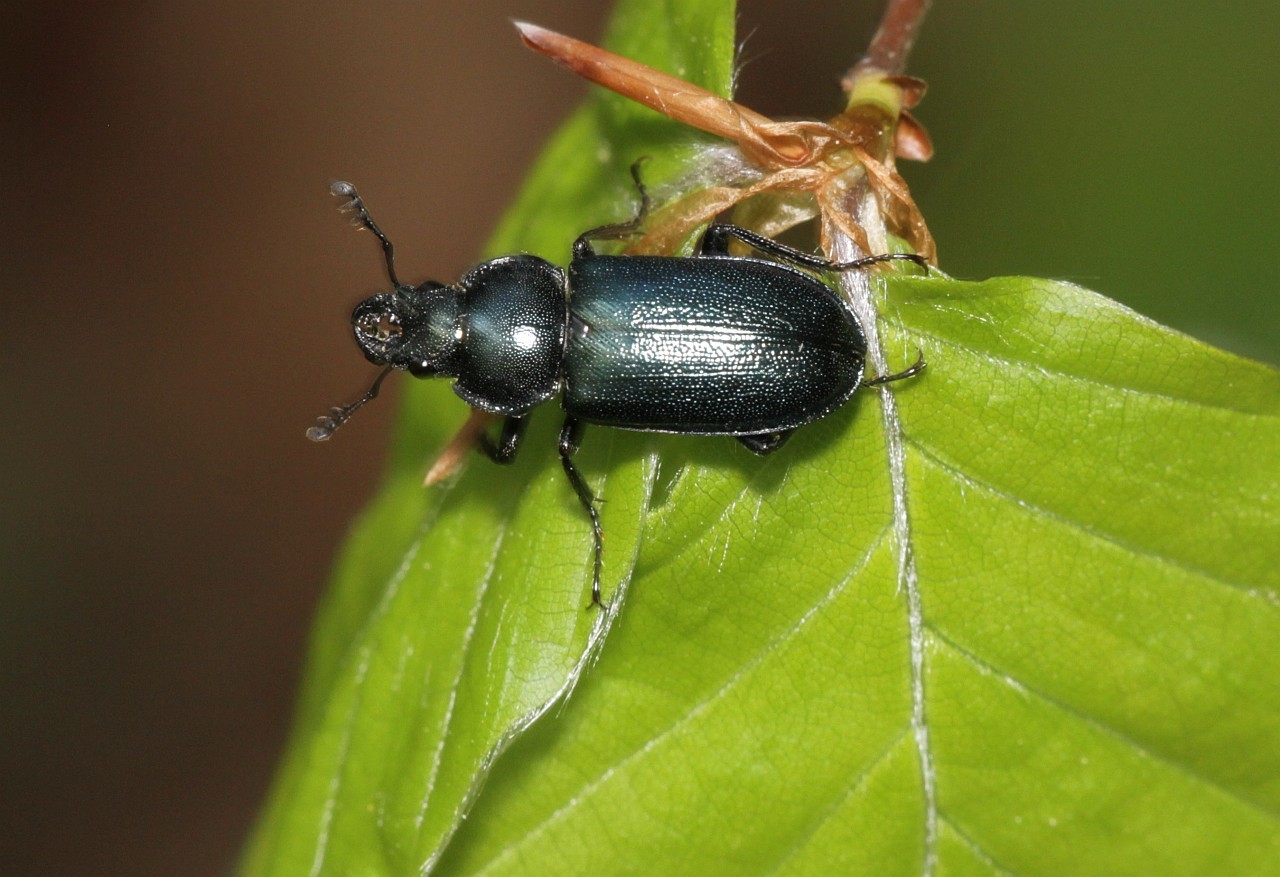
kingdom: Animalia
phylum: Arthropoda
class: Insecta
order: Coleoptera
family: Lucanidae
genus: Platycerus
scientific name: Platycerus caraboides
